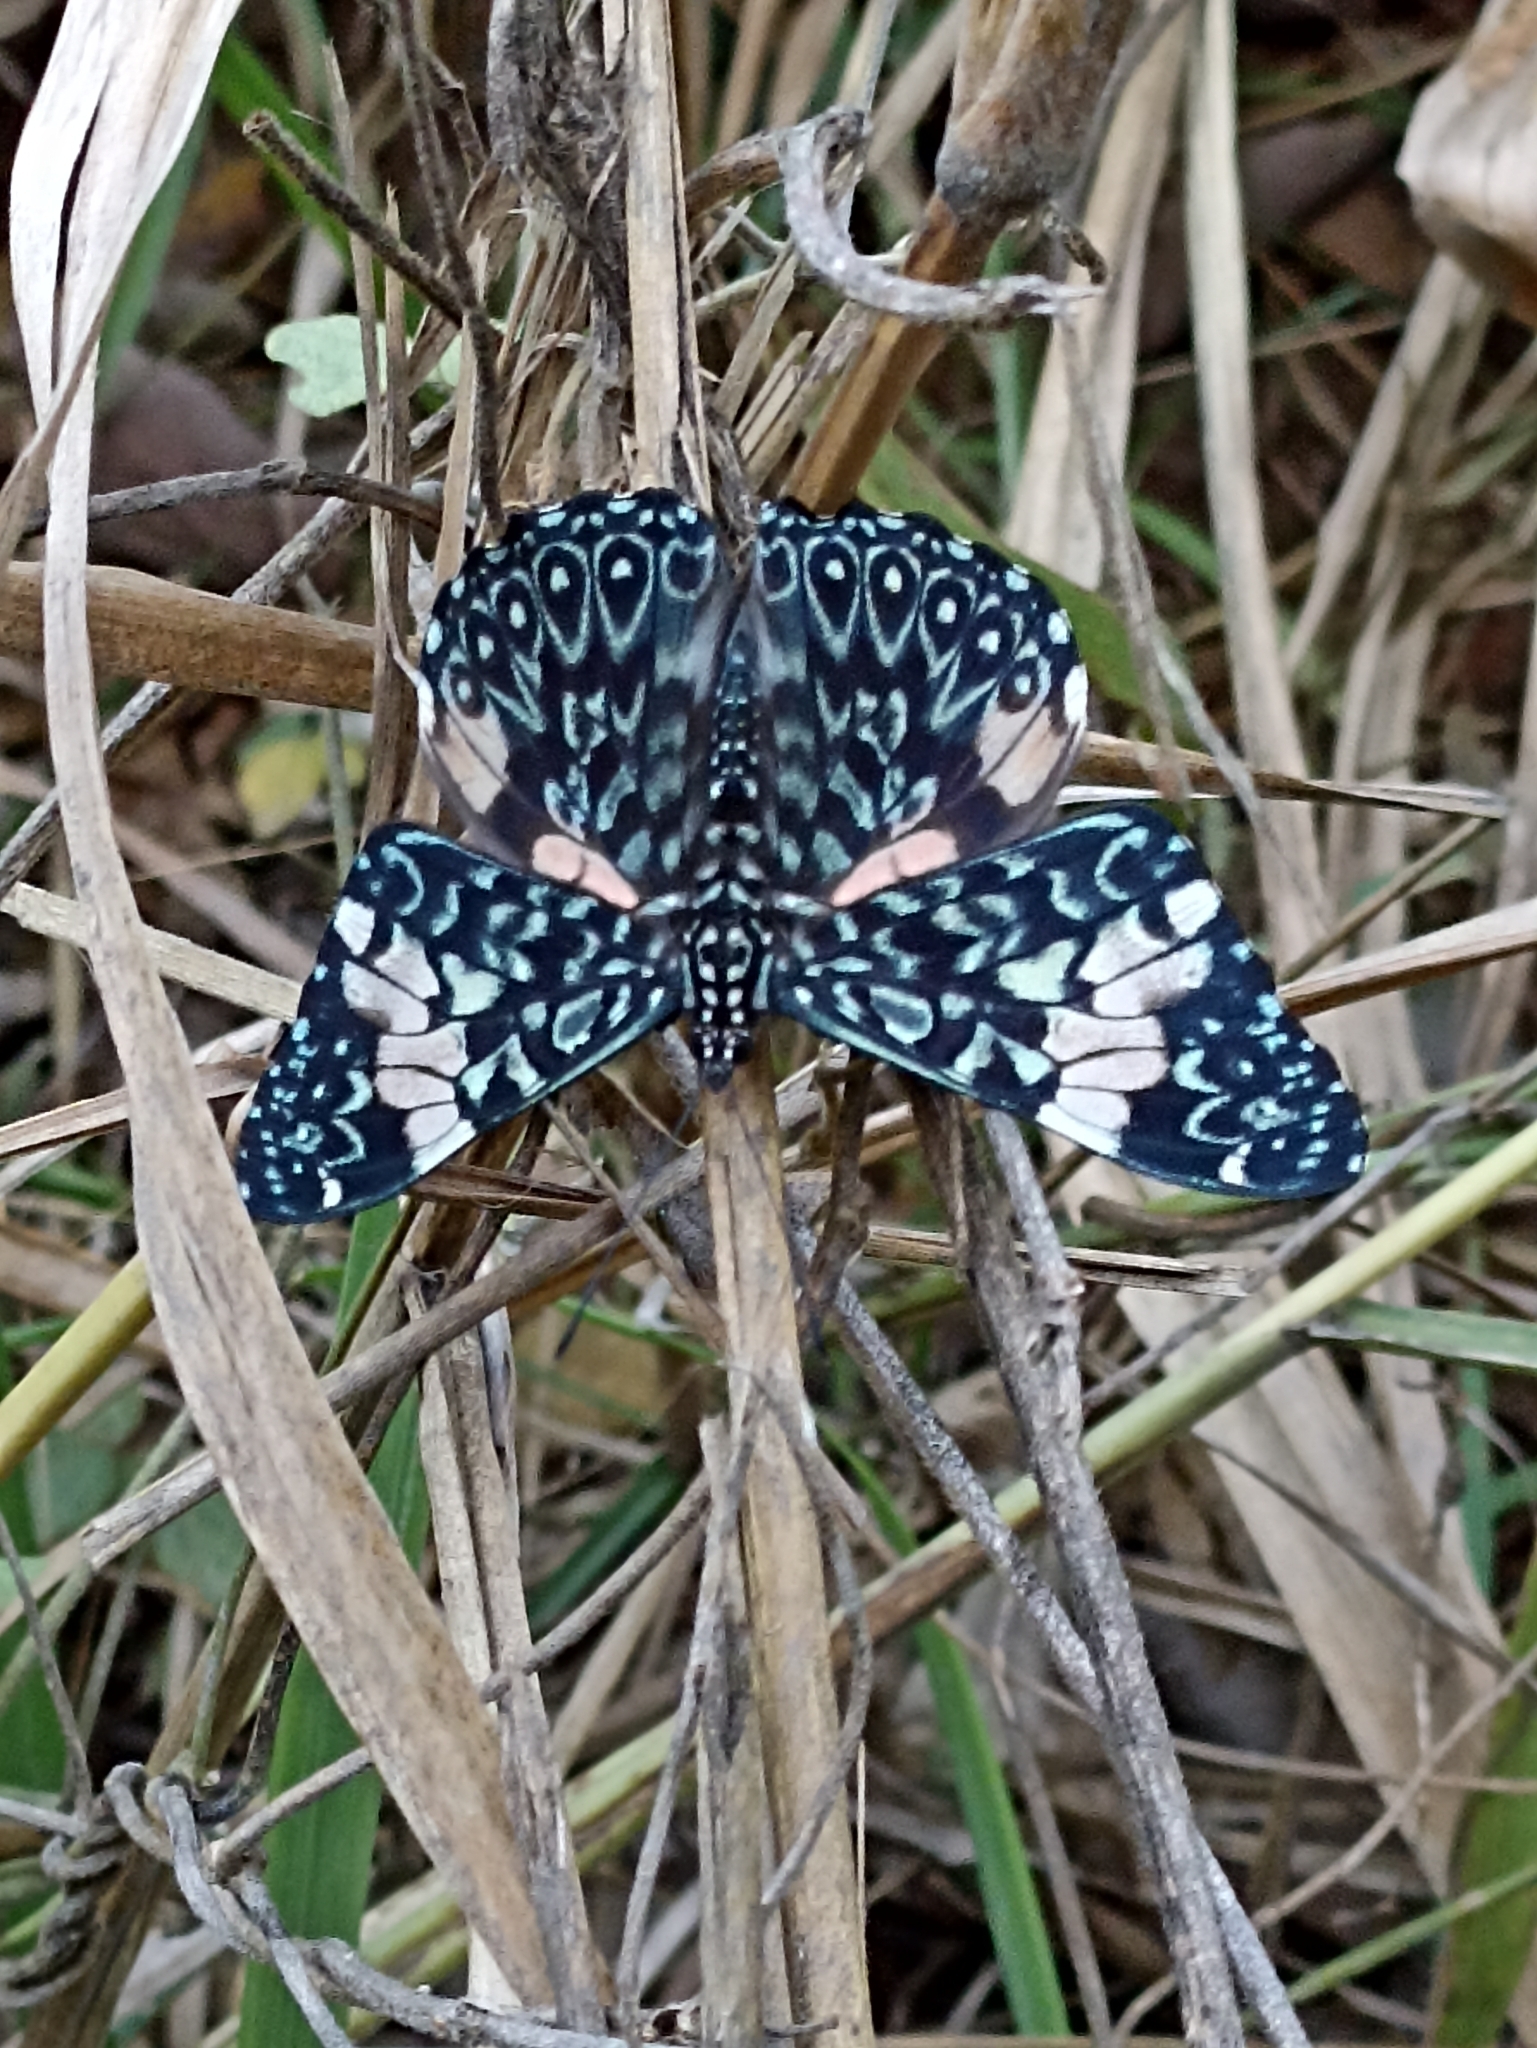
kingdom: Animalia
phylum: Arthropoda
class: Insecta
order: Lepidoptera
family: Nymphalidae
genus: Hamadryas
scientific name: Hamadryas amphinome
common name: Red cracker
